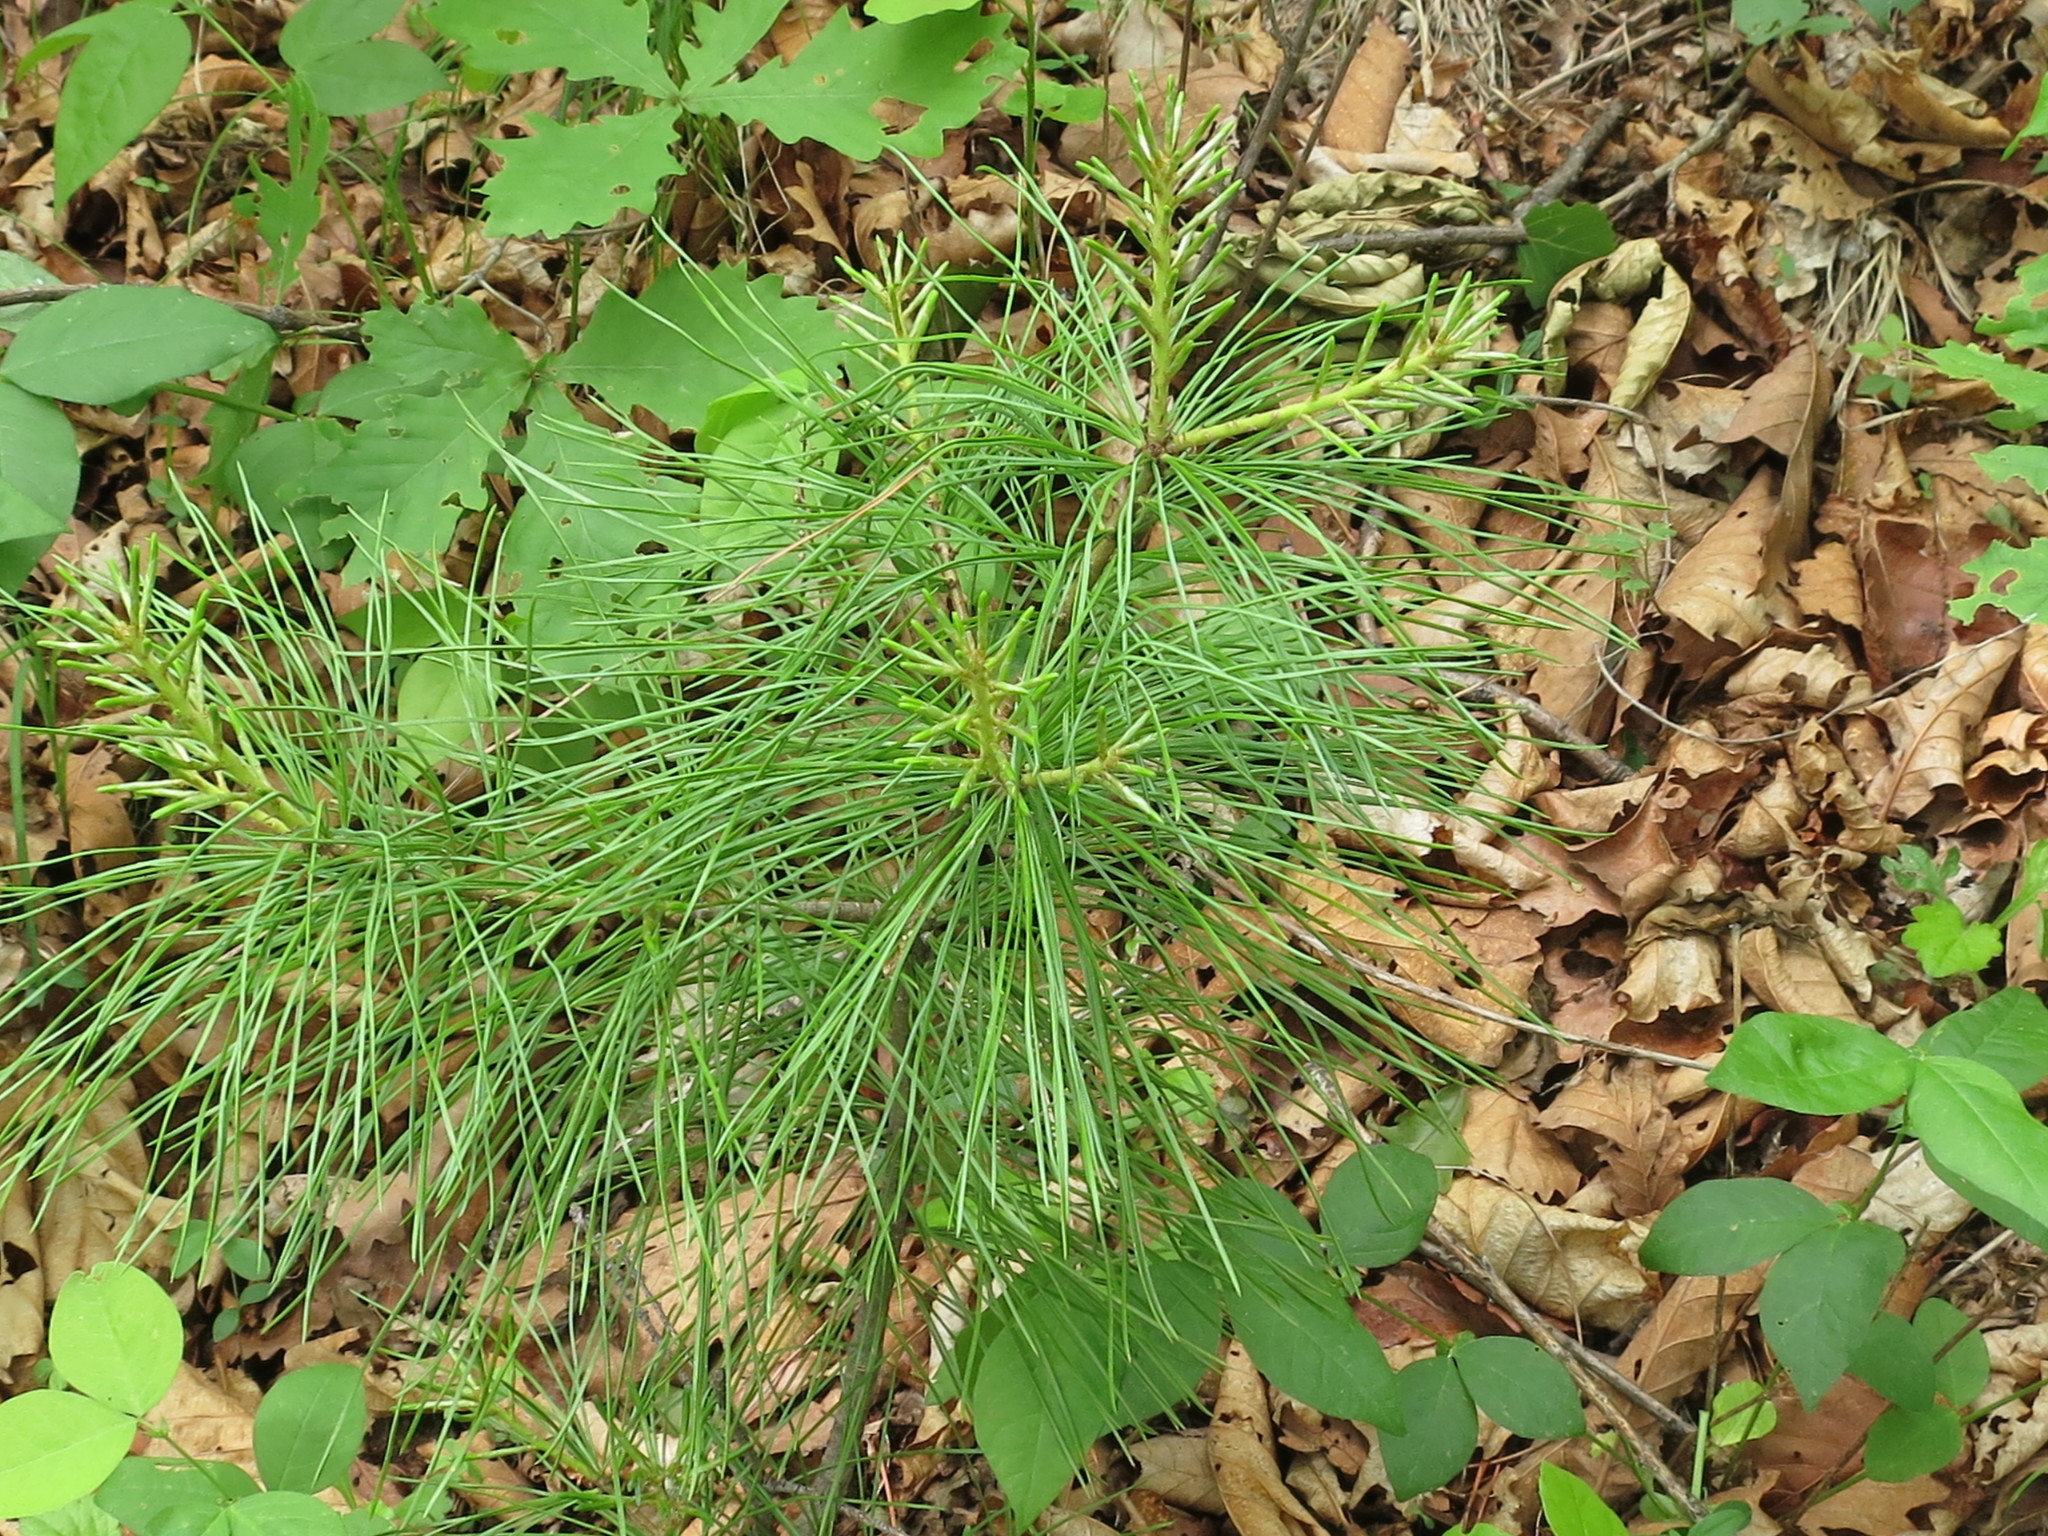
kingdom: Plantae
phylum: Tracheophyta
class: Pinopsida
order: Pinales
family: Pinaceae
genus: Pinus
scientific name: Pinus koraiensis
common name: Korean pine
